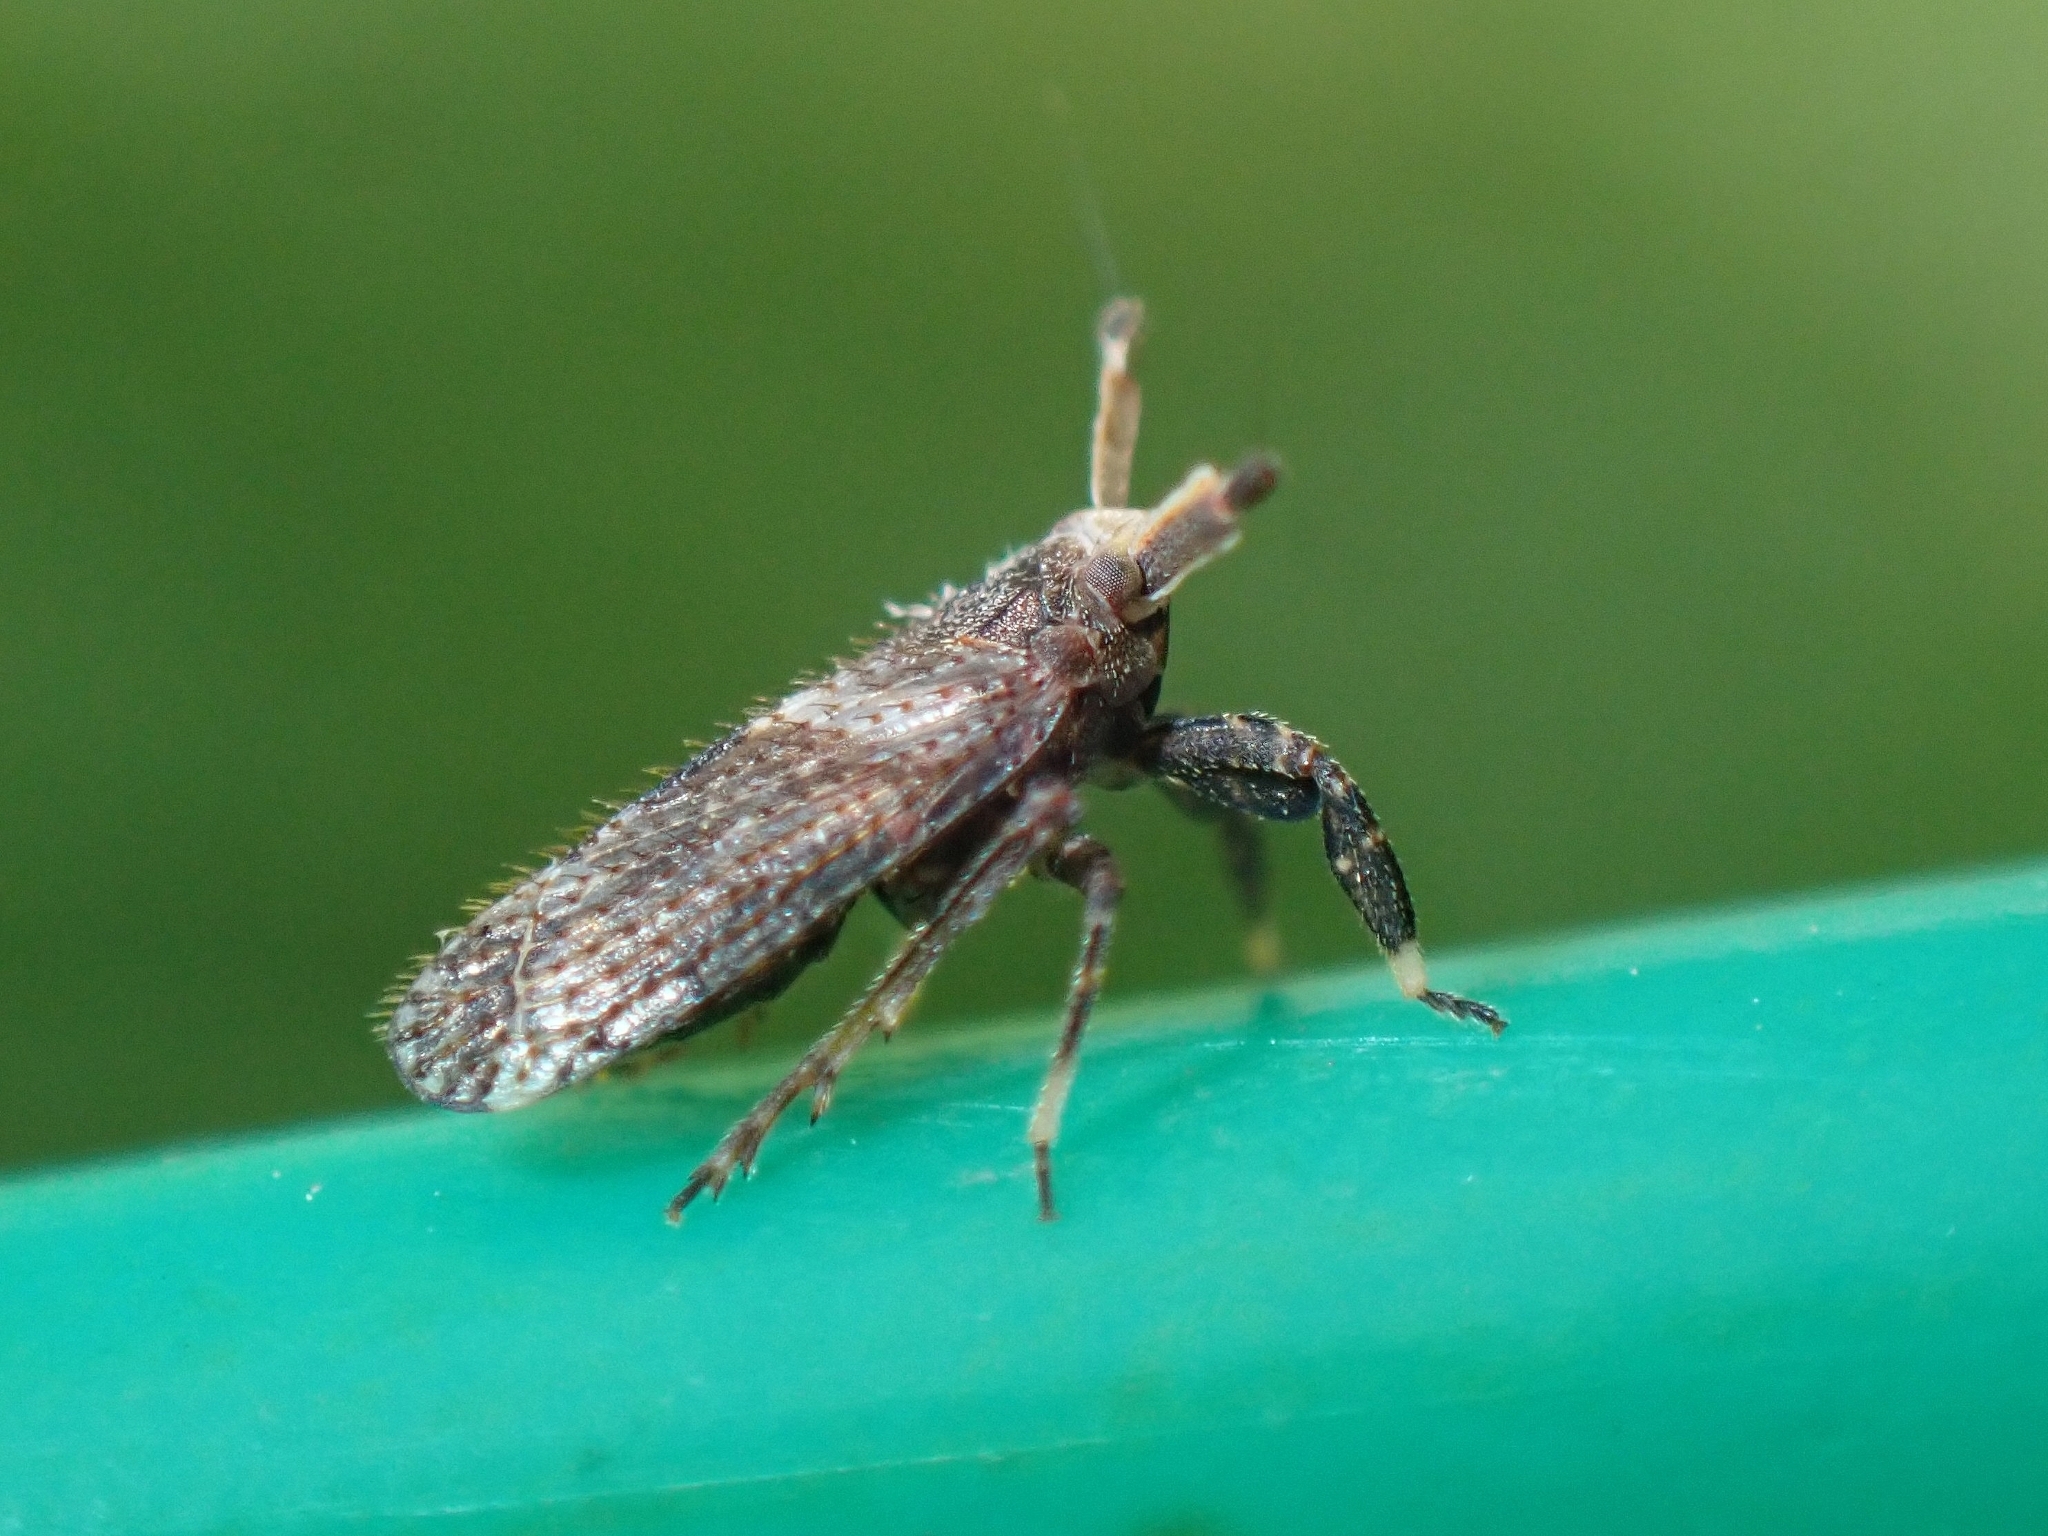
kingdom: Animalia
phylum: Arthropoda
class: Insecta
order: Hemiptera
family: Delphacidae
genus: Asiraca
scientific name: Asiraca clavicornis
